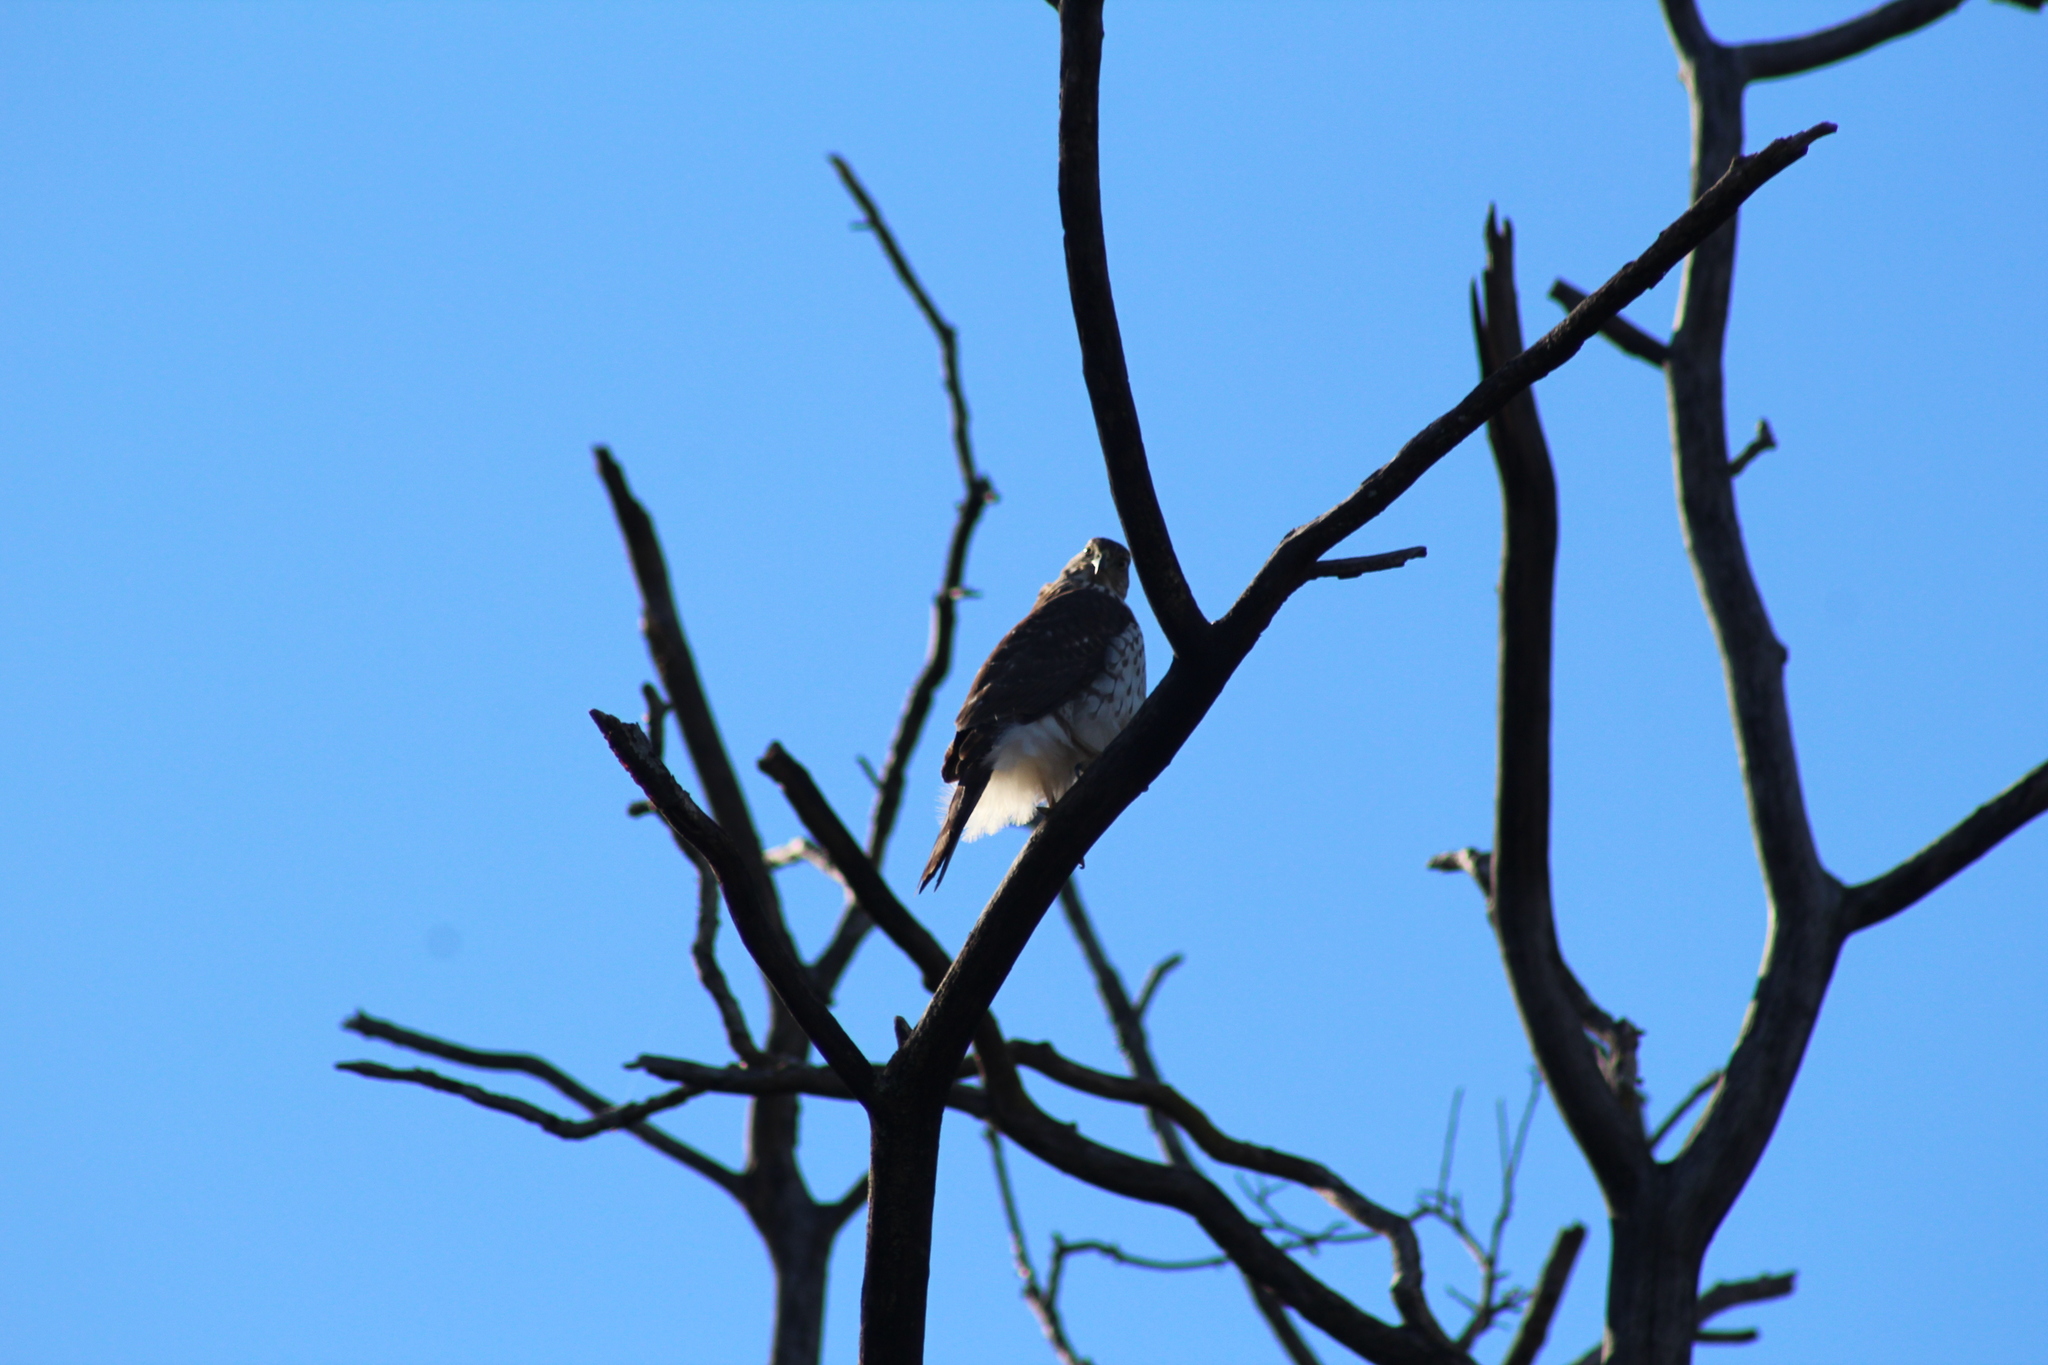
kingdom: Animalia
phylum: Chordata
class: Aves
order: Accipitriformes
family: Accipitridae
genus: Buteo
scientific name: Buteo lineatus
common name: Red-shouldered hawk
